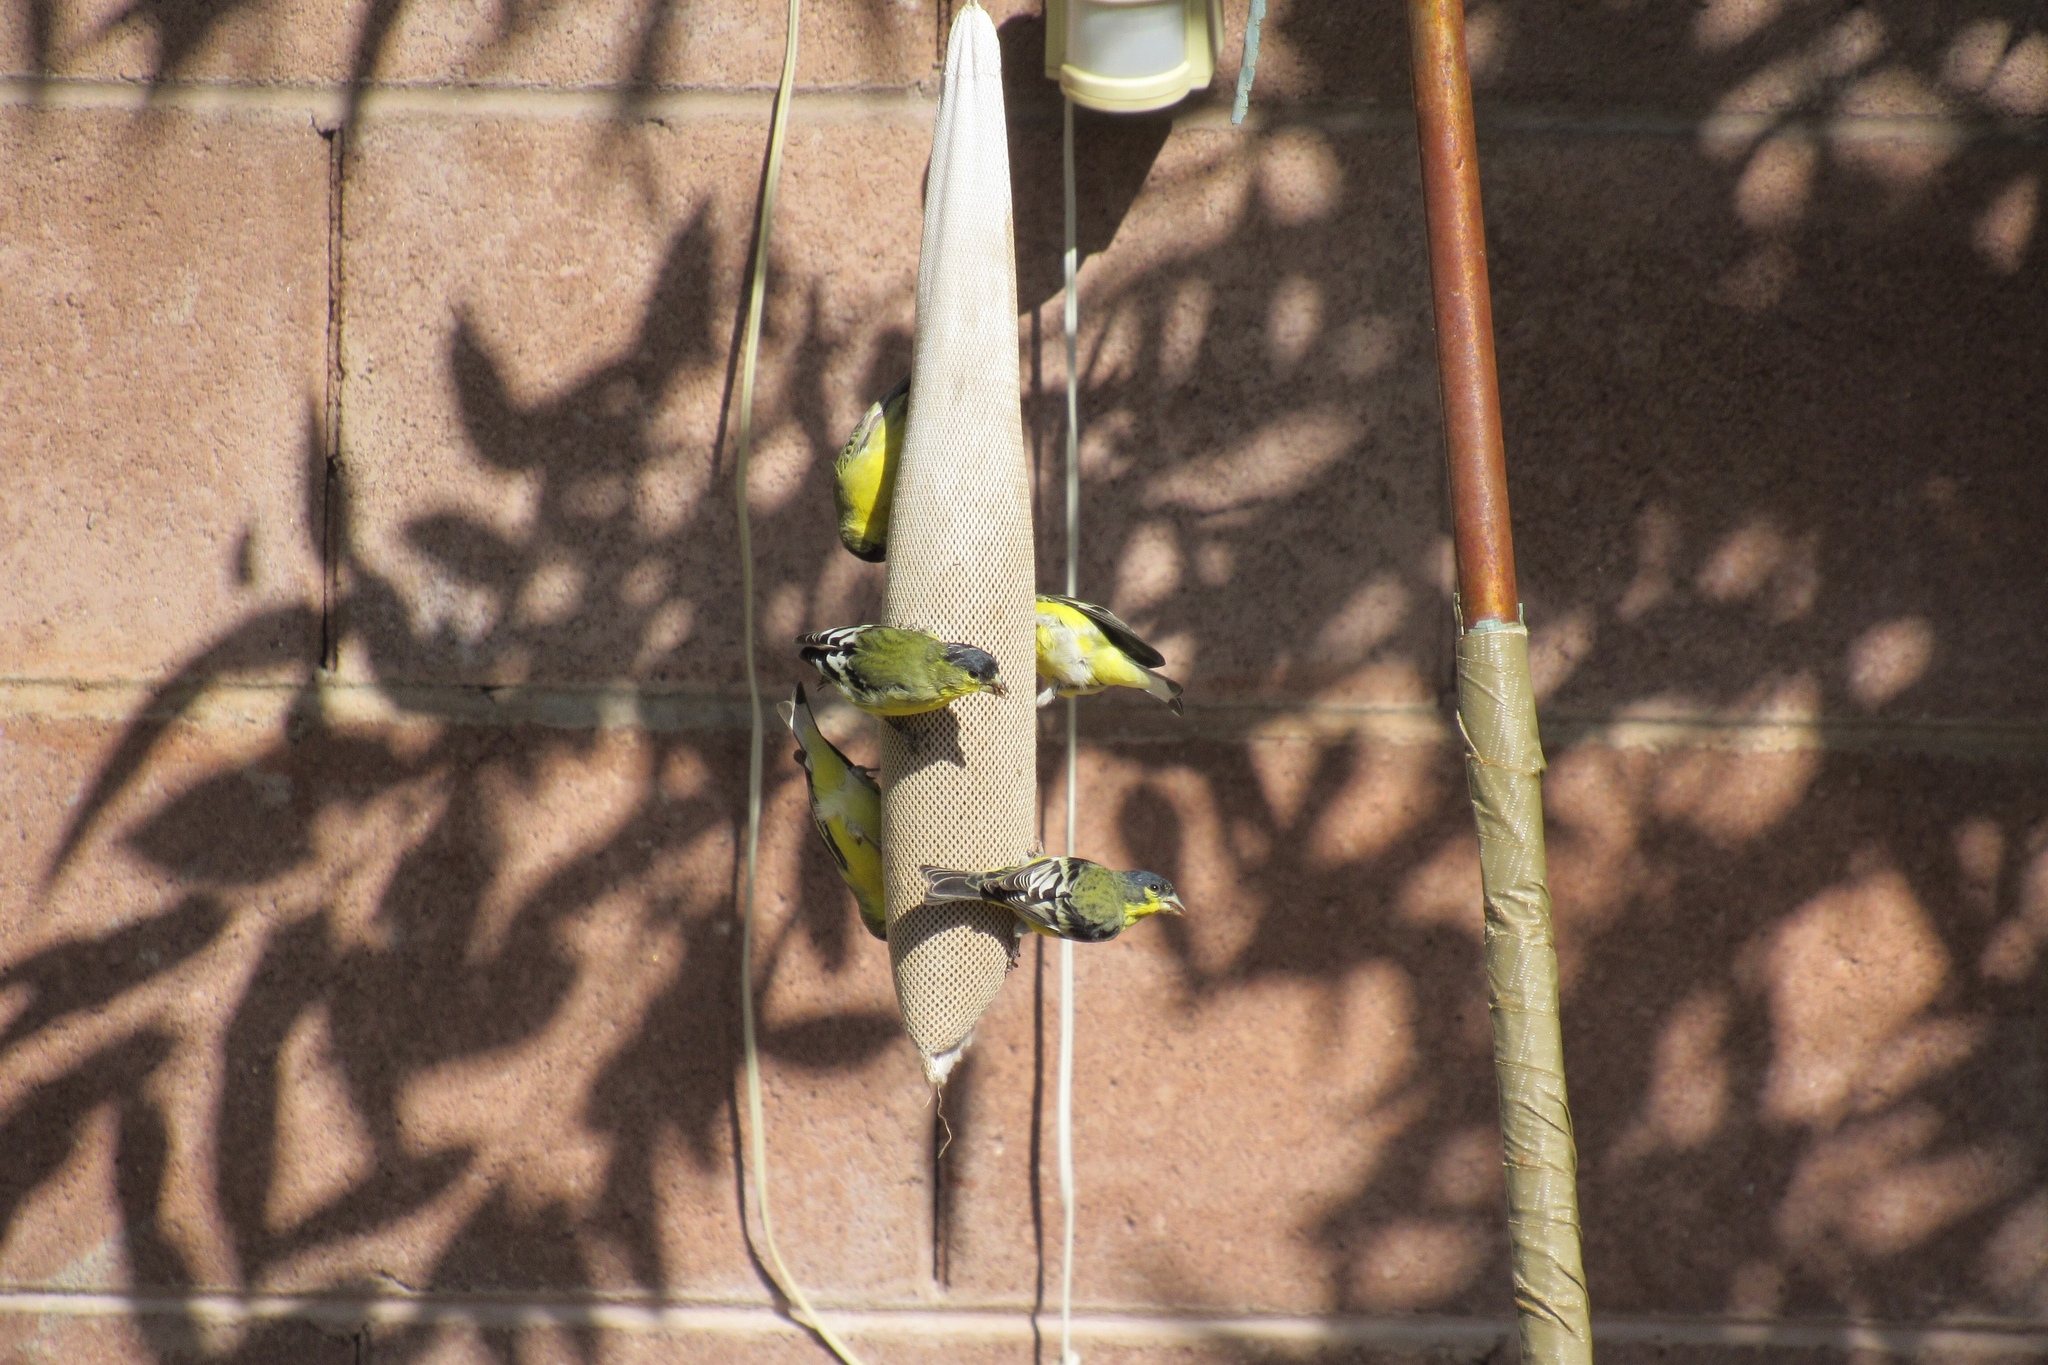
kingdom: Animalia
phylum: Chordata
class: Aves
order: Passeriformes
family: Fringillidae
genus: Spinus
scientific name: Spinus psaltria
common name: Lesser goldfinch
